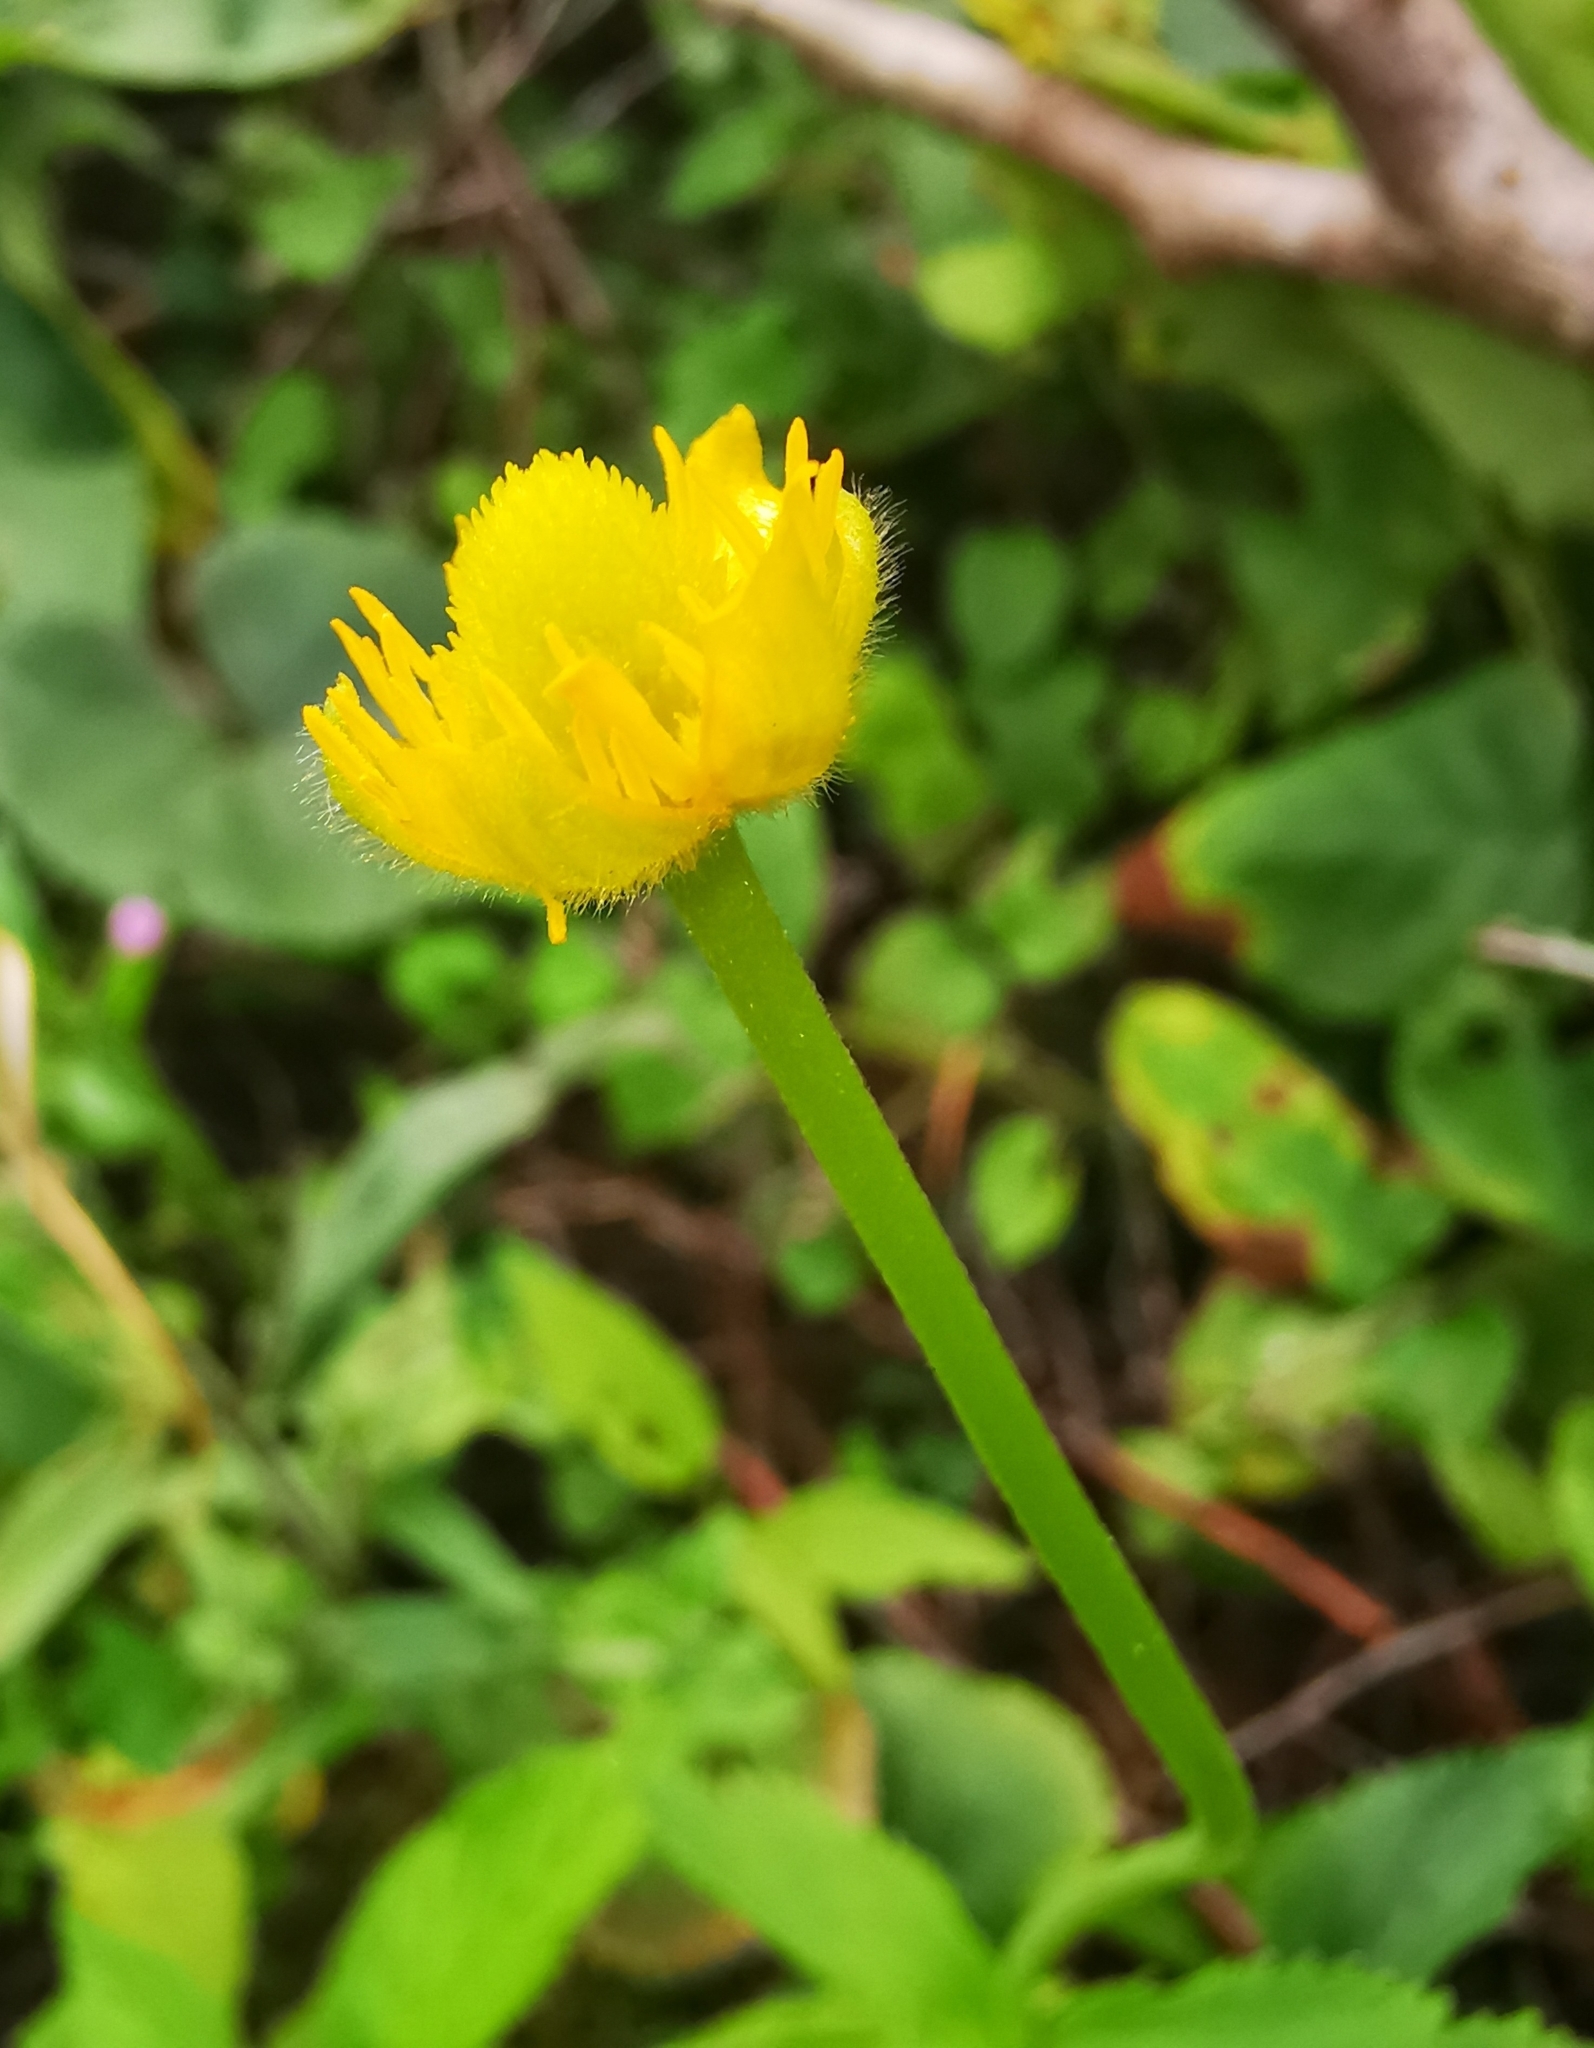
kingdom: Plantae
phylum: Tracheophyta
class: Magnoliopsida
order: Ranunculales
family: Ranunculaceae
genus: Ranunculus
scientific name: Ranunculus cassubicus
